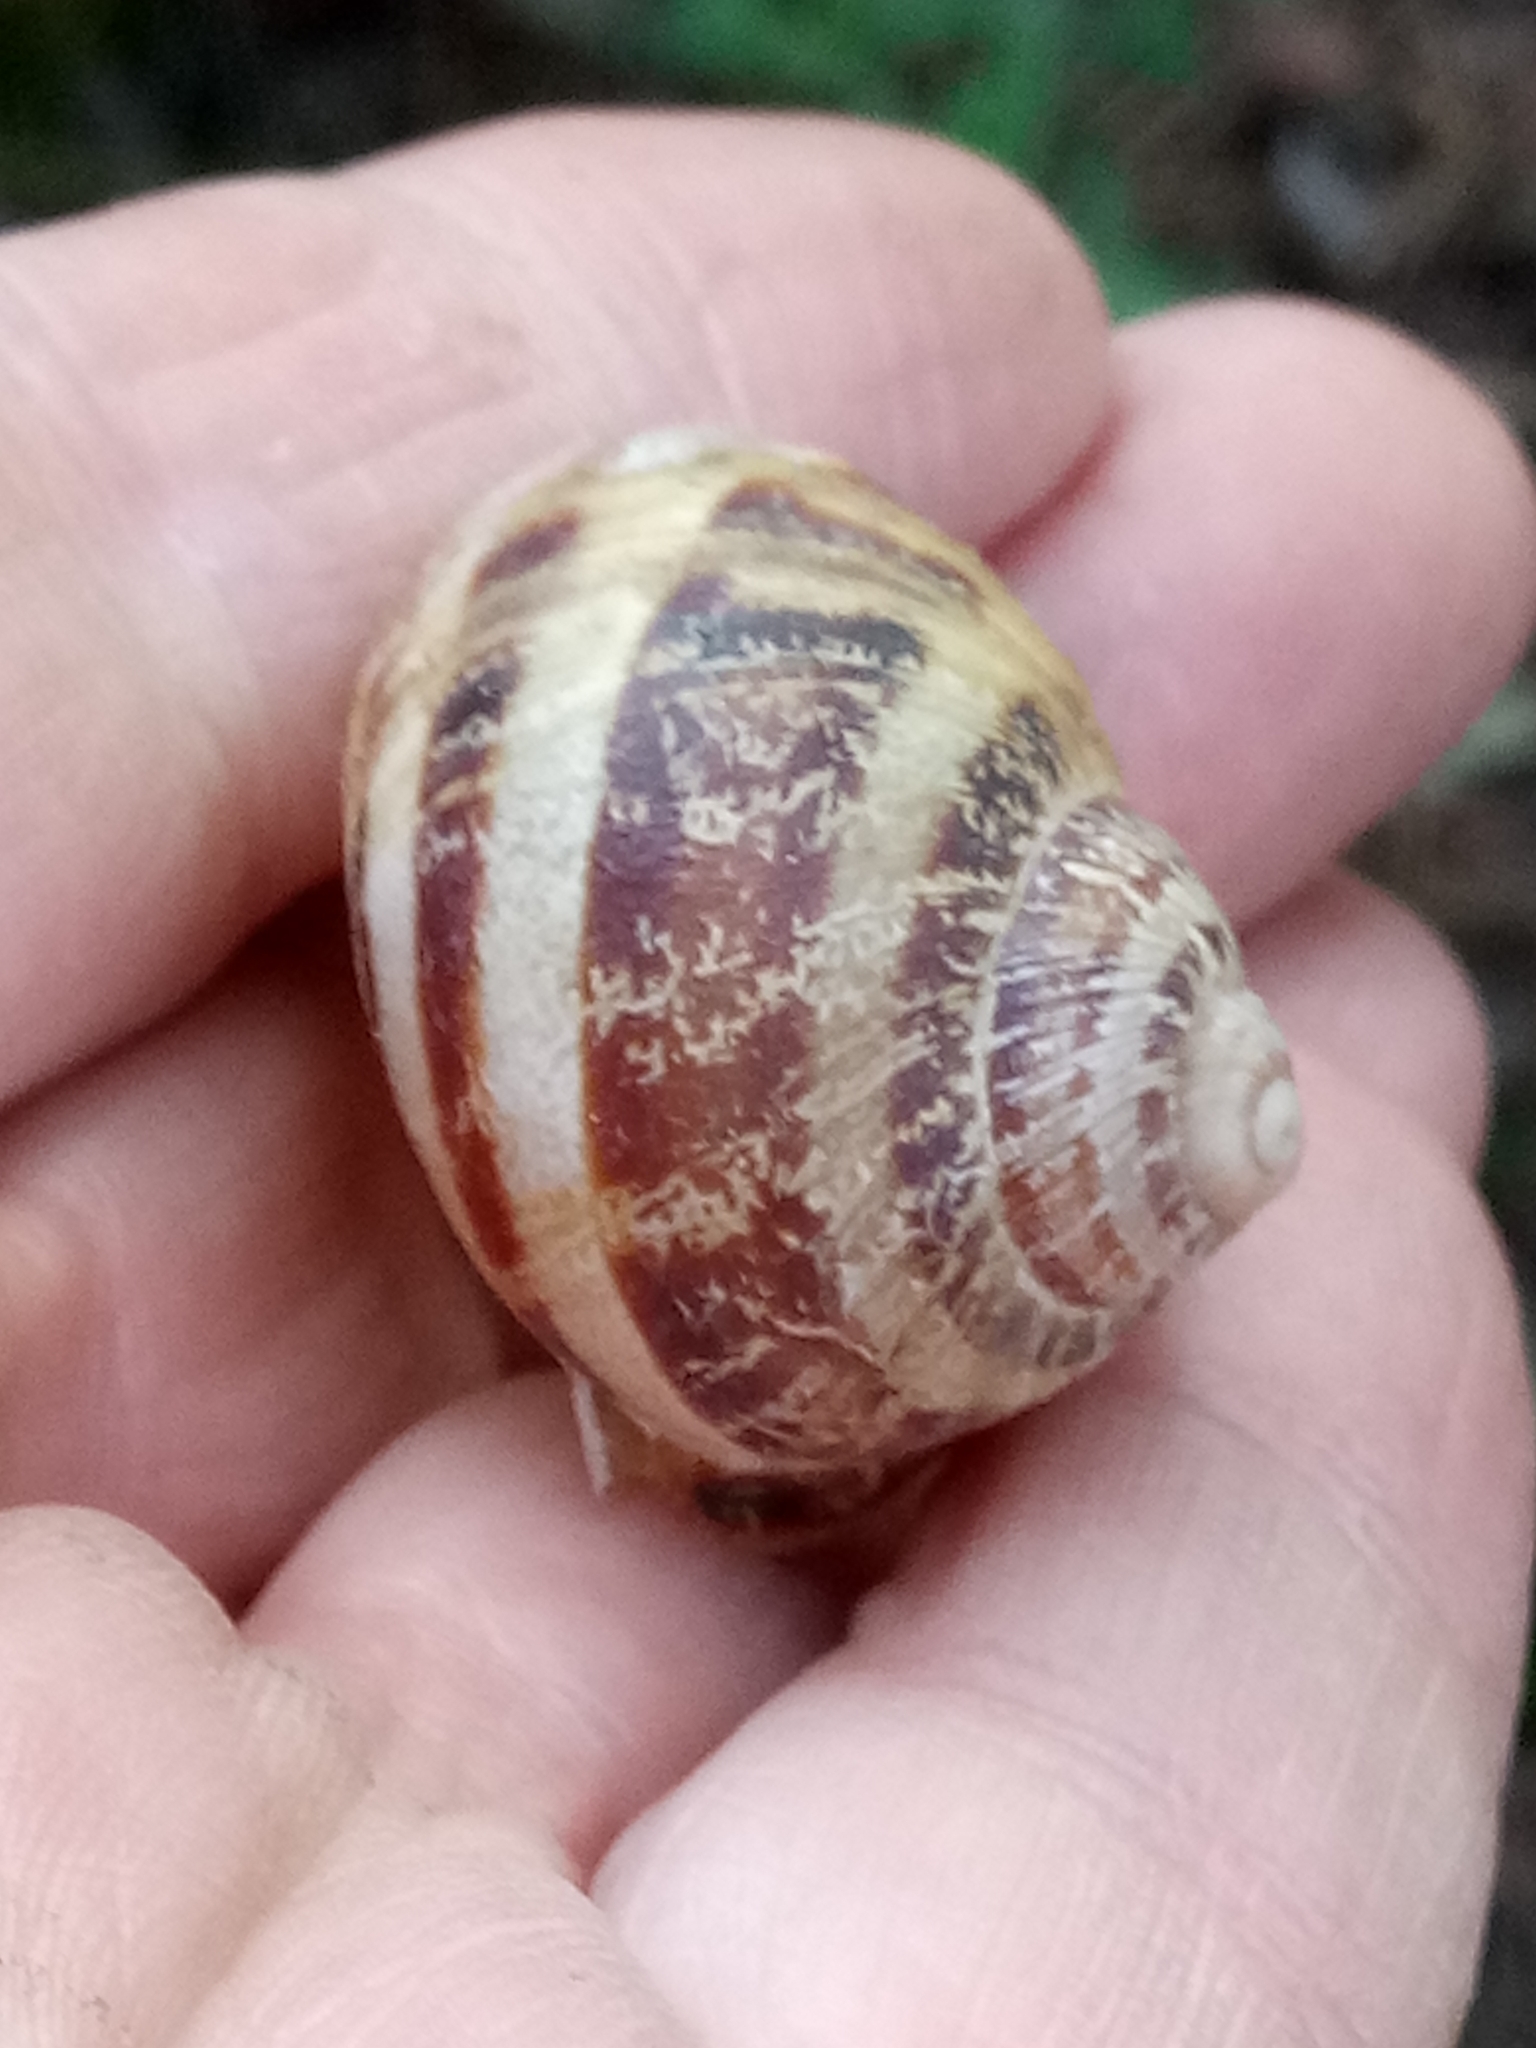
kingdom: Animalia
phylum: Mollusca
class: Gastropoda
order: Stylommatophora
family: Helicidae
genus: Cornu
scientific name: Cornu aspersum
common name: Brown garden snail
